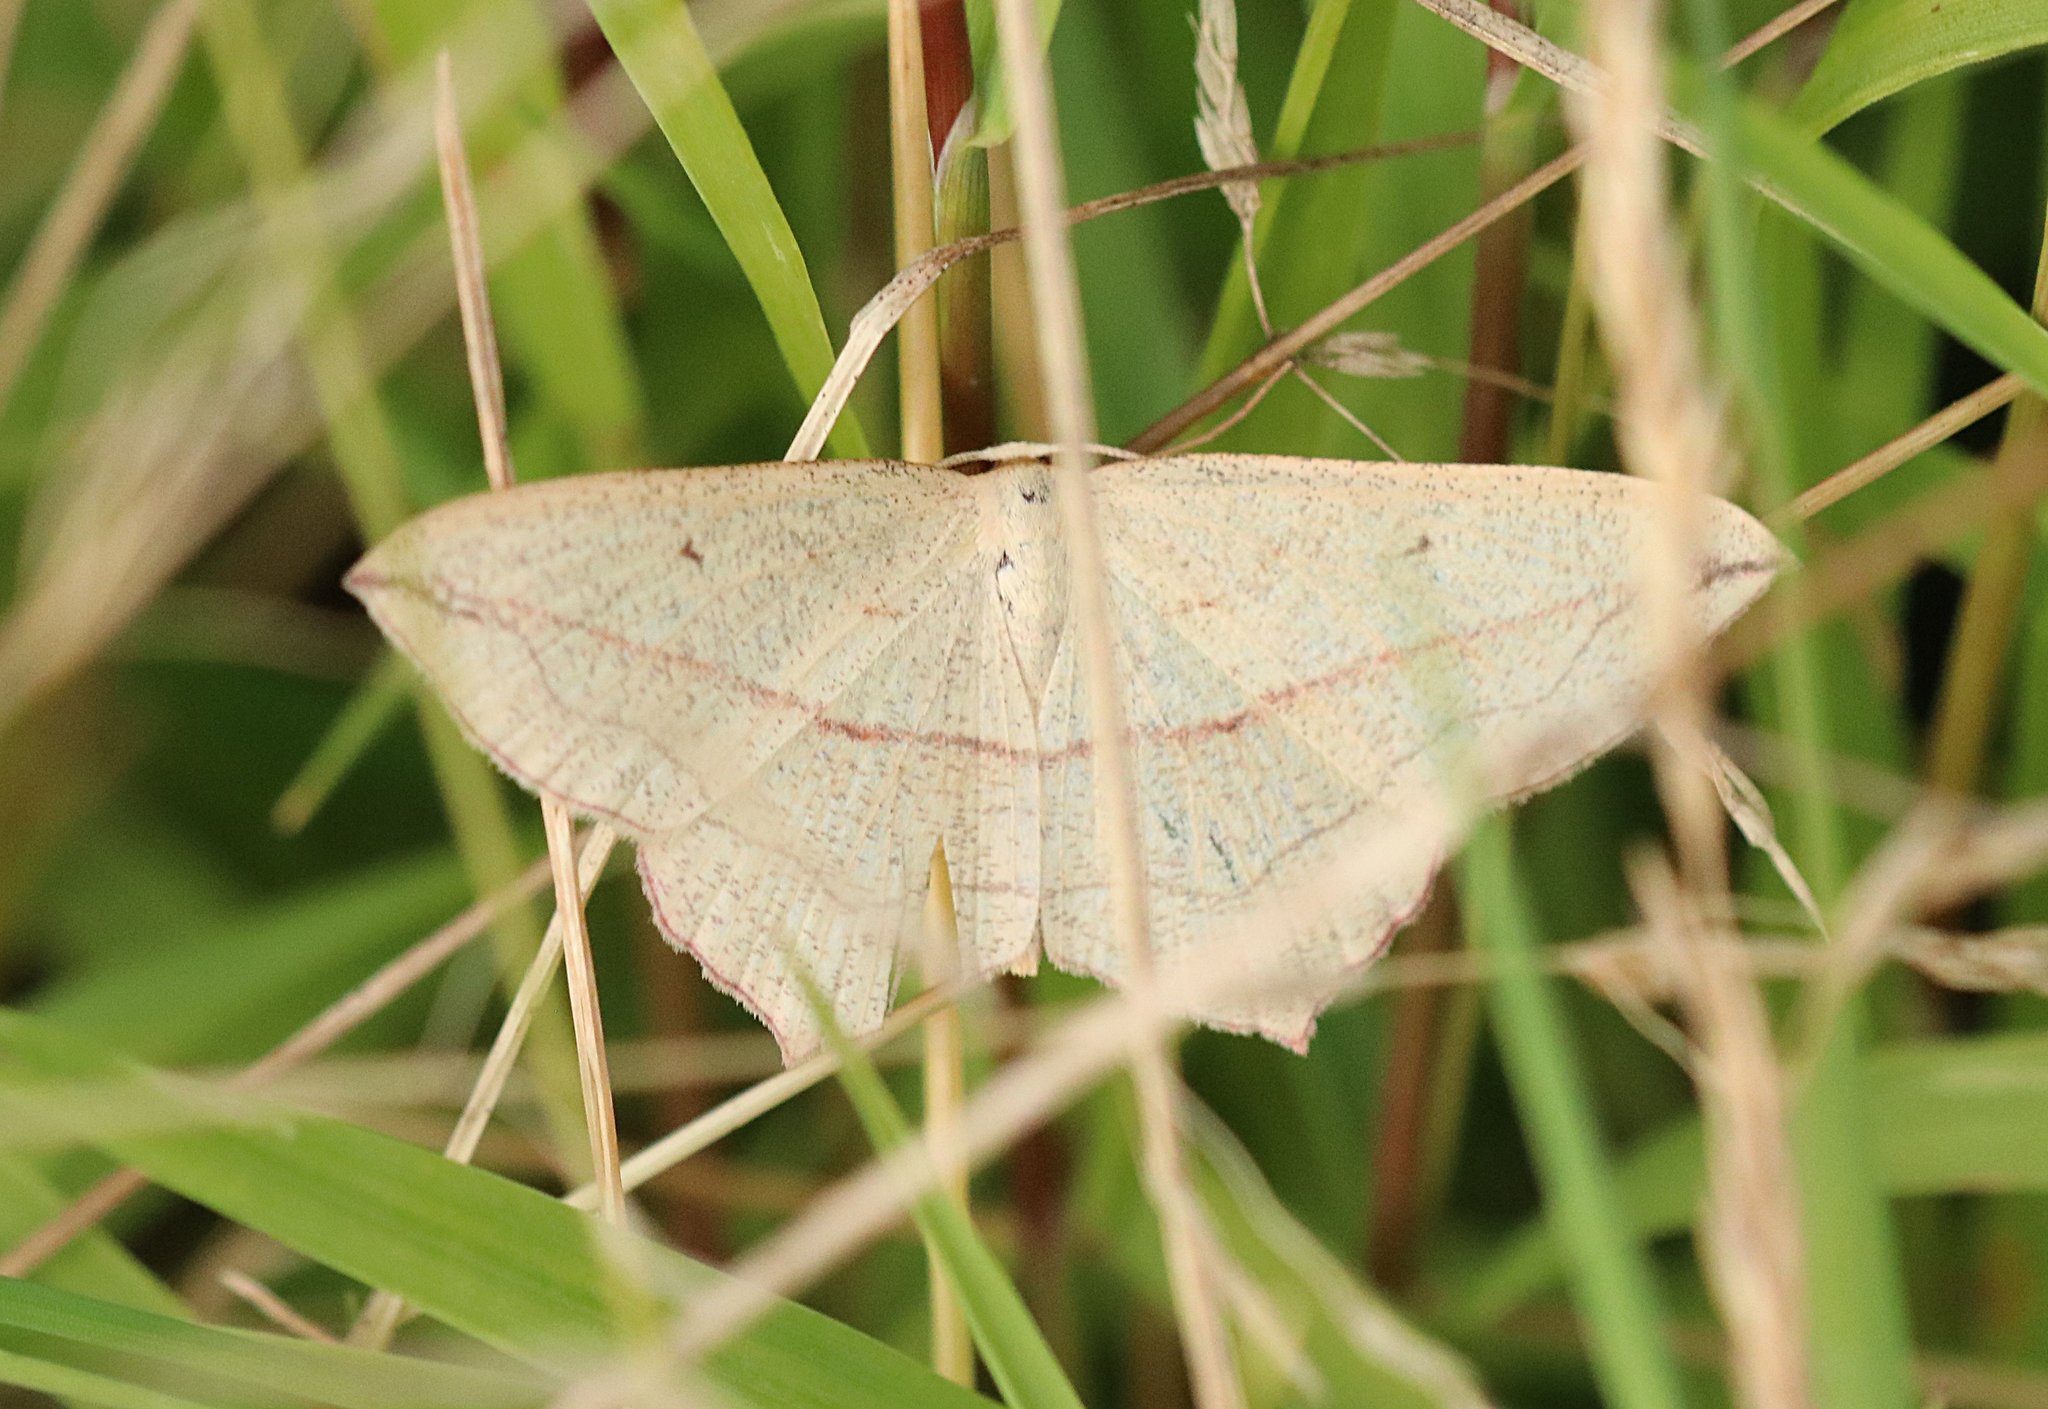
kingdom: Animalia
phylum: Arthropoda
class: Insecta
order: Lepidoptera
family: Geometridae
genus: Timandra
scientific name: Timandra comae
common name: Blood-vein
